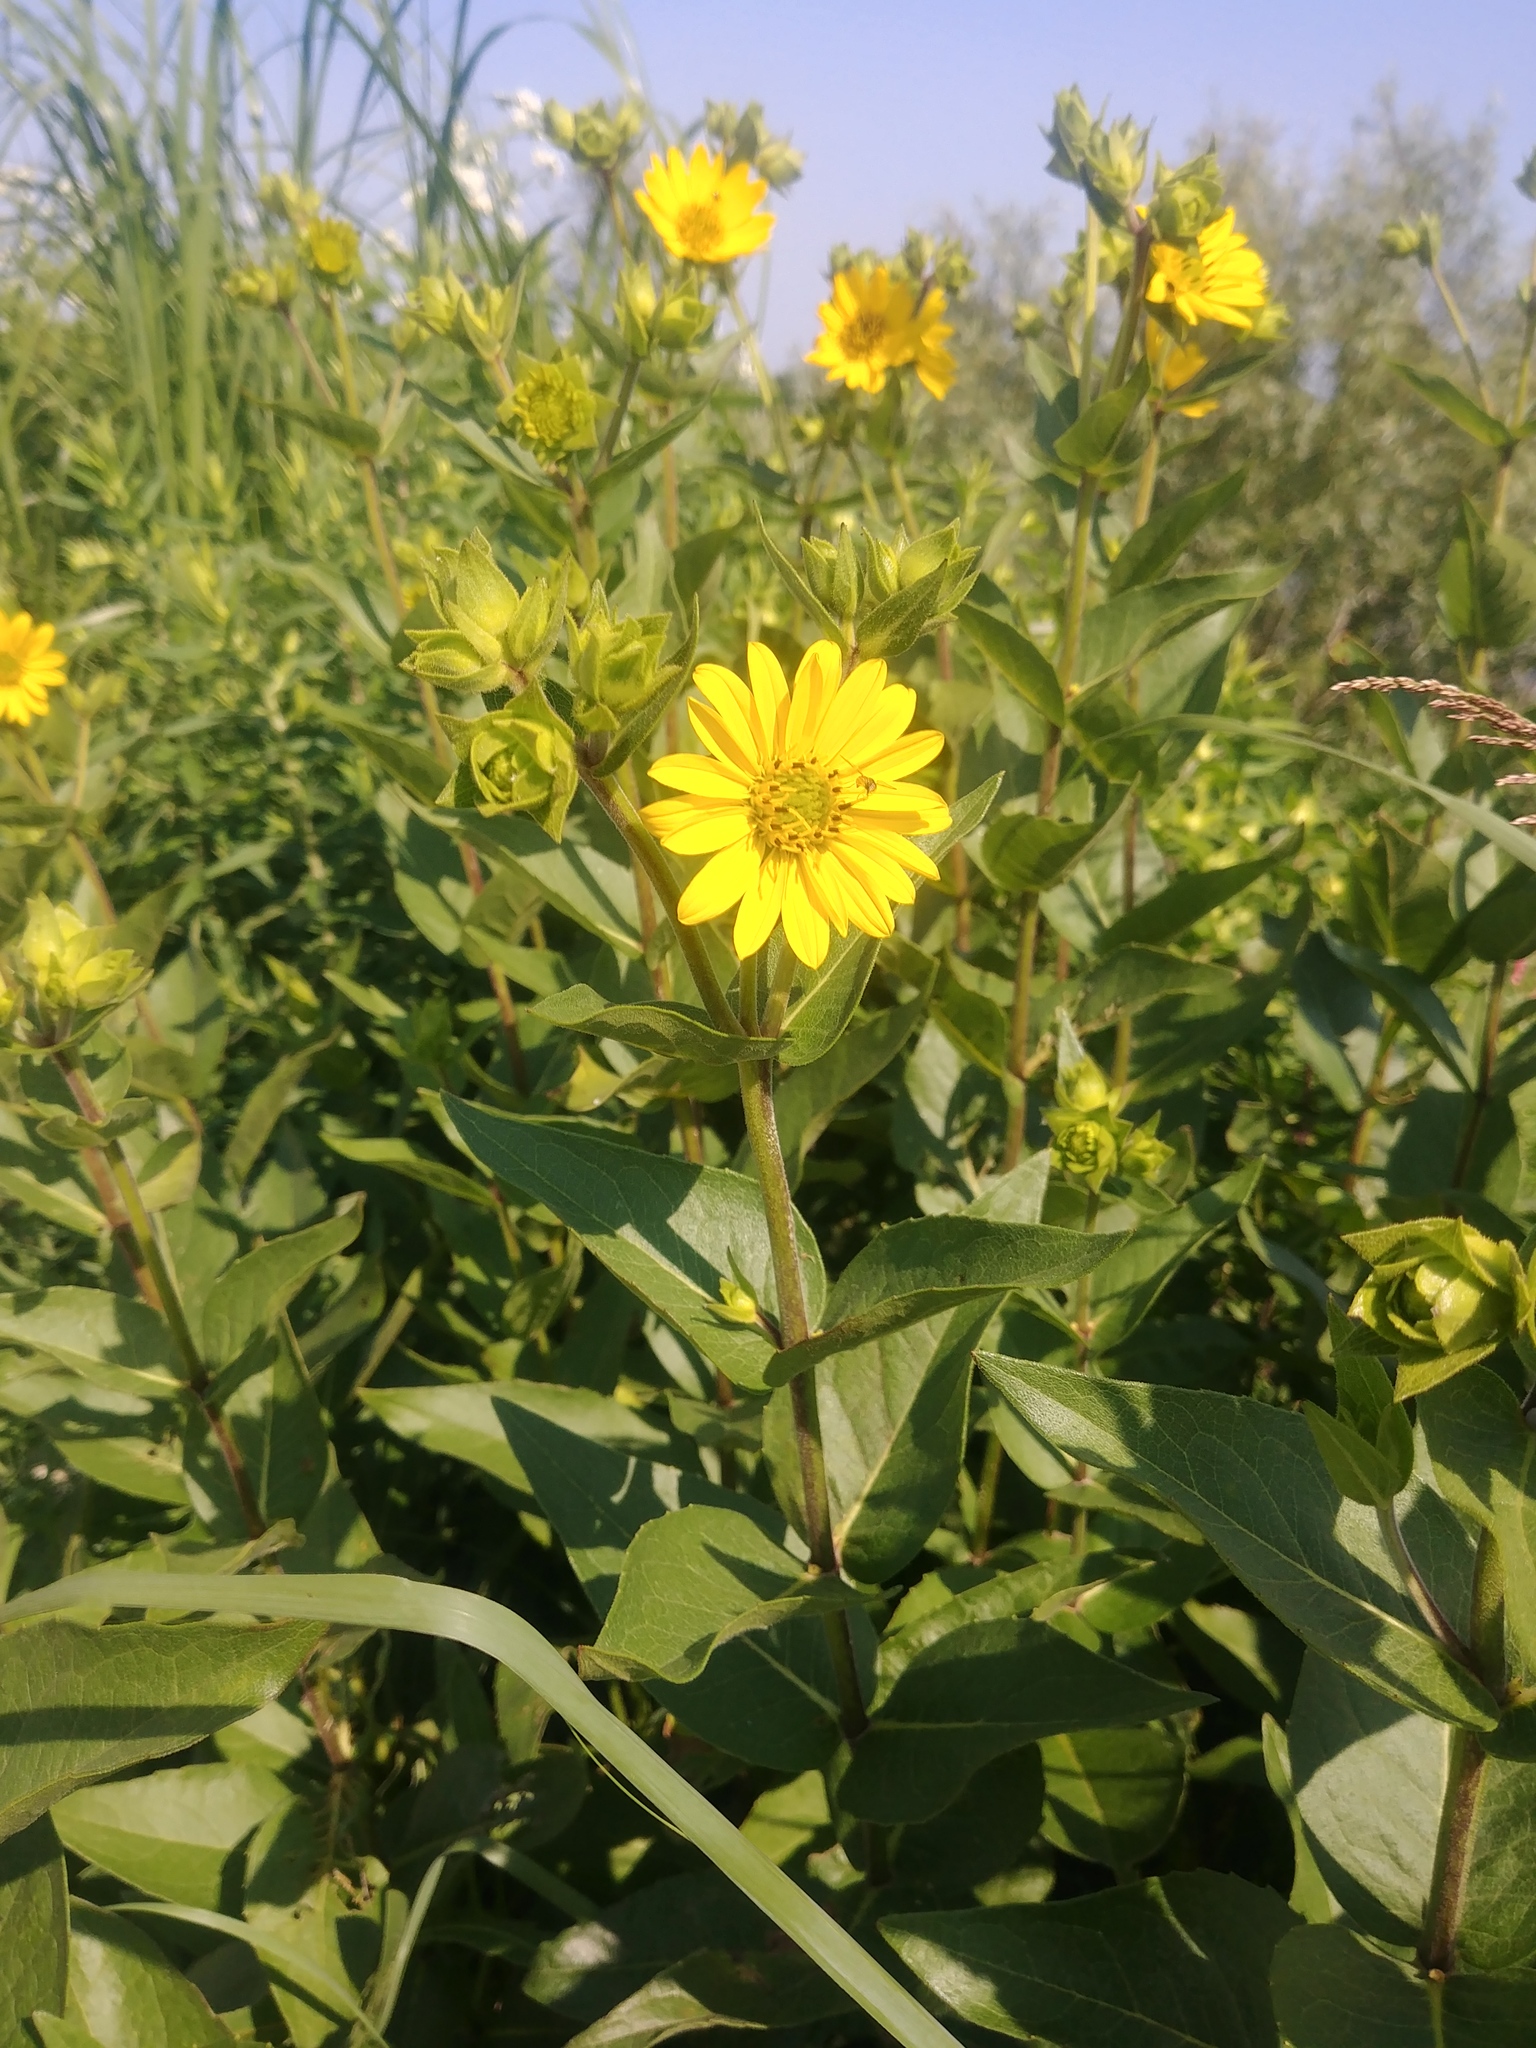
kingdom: Plantae
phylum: Tracheophyta
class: Magnoliopsida
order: Asterales
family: Asteraceae
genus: Silphium
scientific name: Silphium integrifolium
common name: Whole-leaf rosinweed
